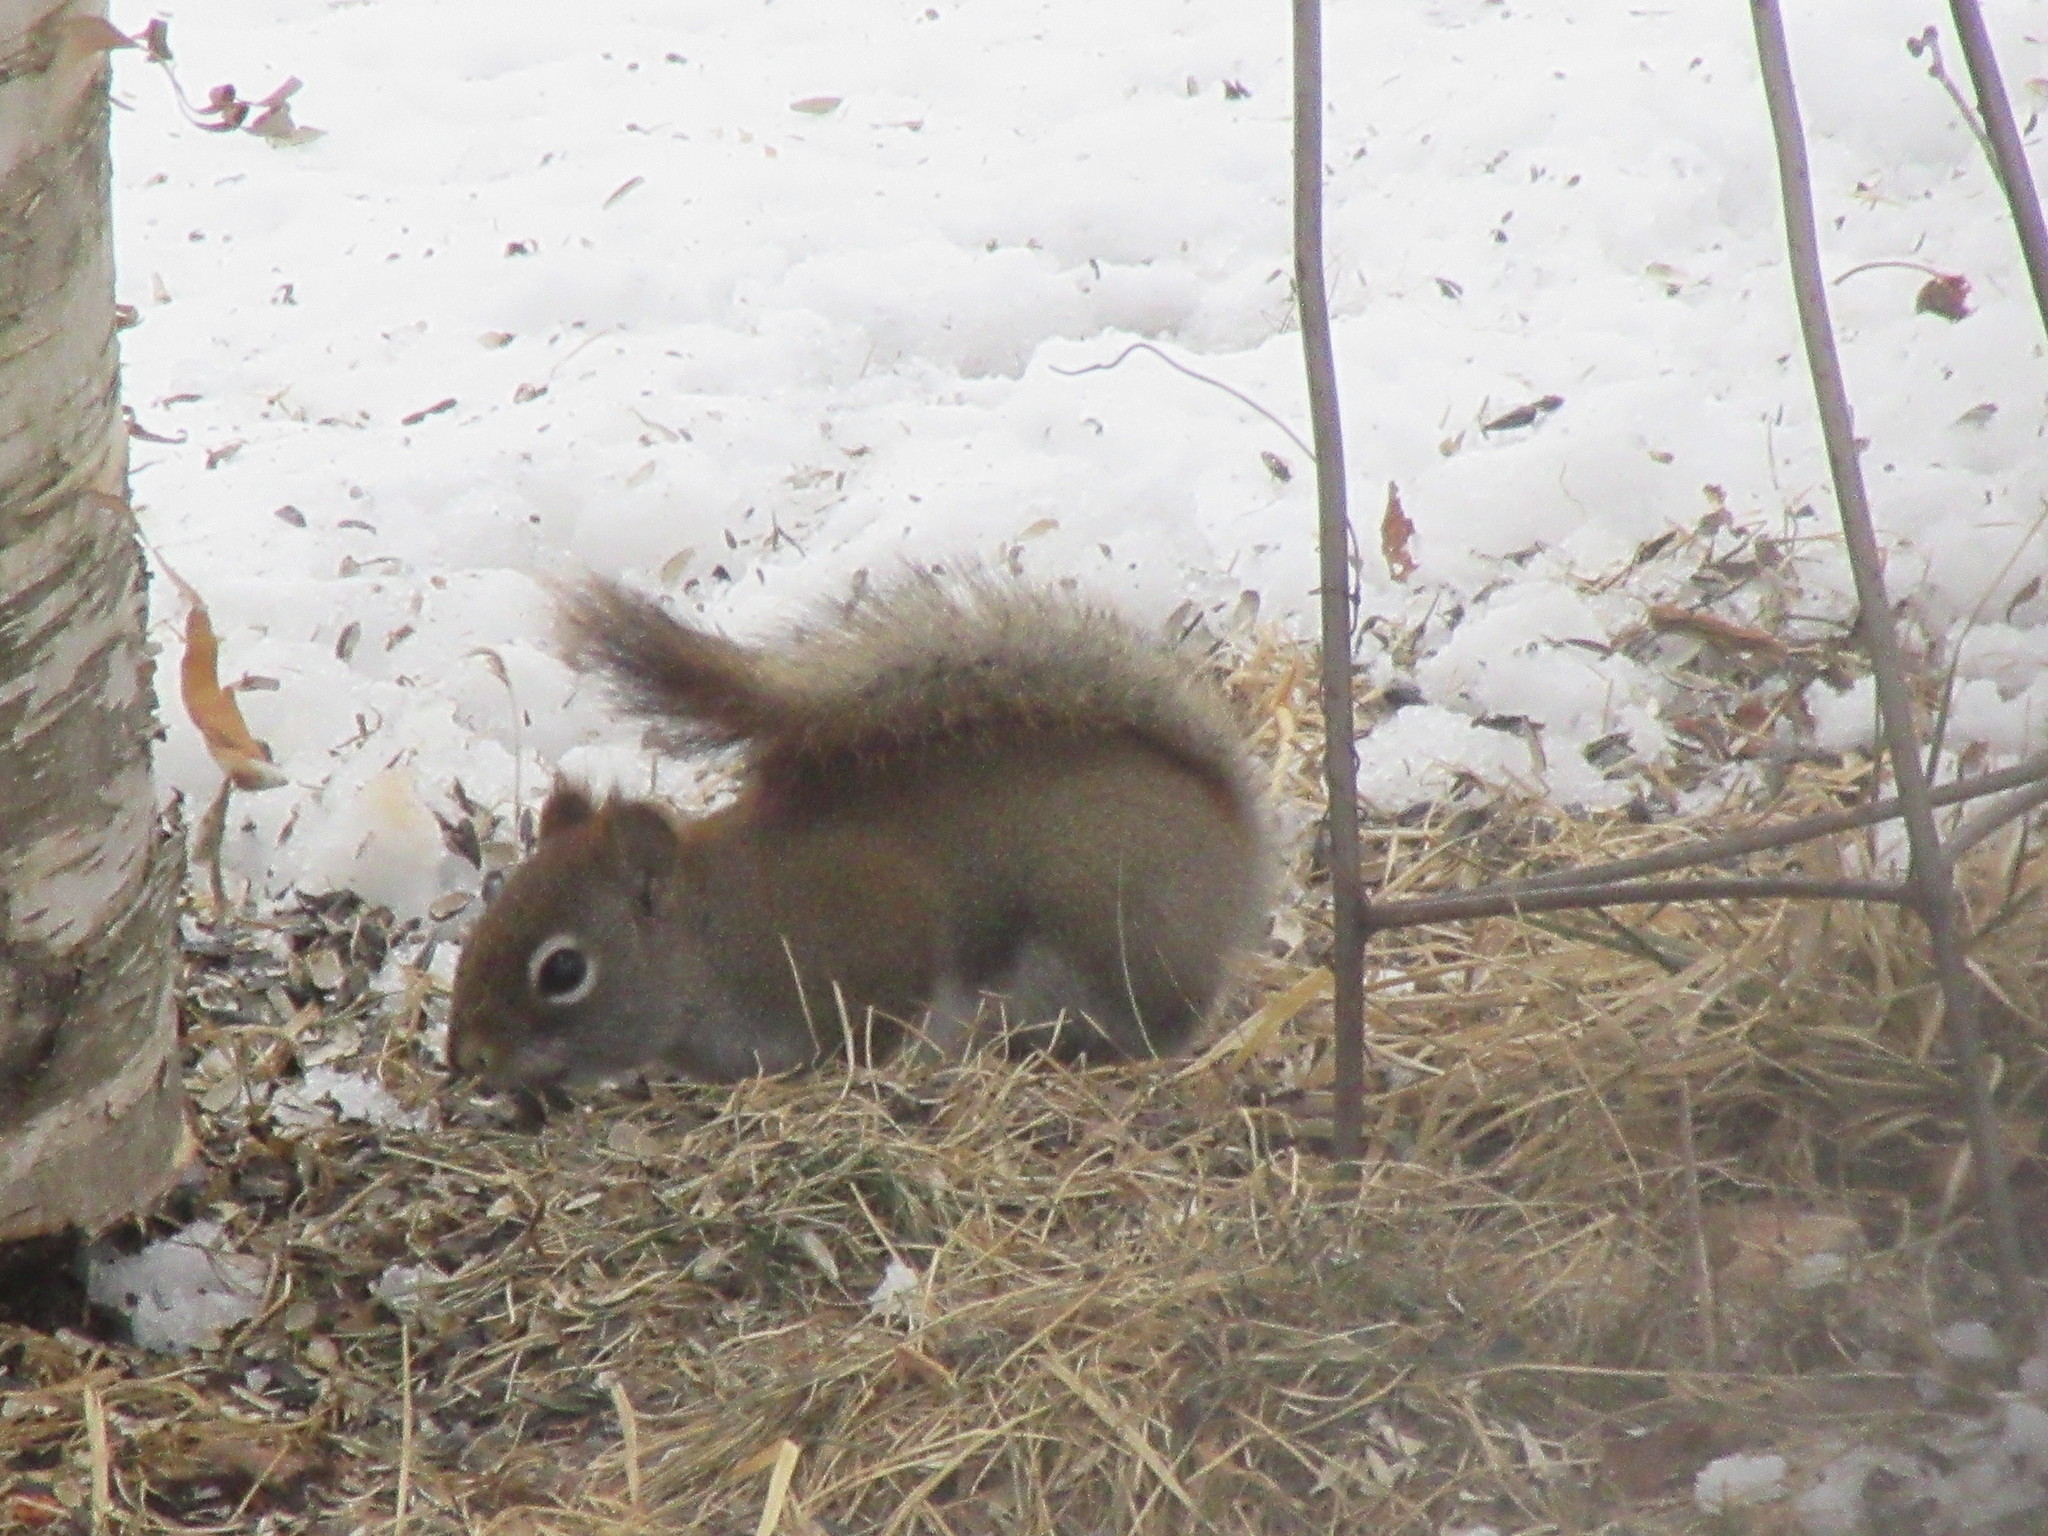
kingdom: Animalia
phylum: Chordata
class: Mammalia
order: Rodentia
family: Sciuridae
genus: Tamiasciurus
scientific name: Tamiasciurus hudsonicus
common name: Red squirrel
